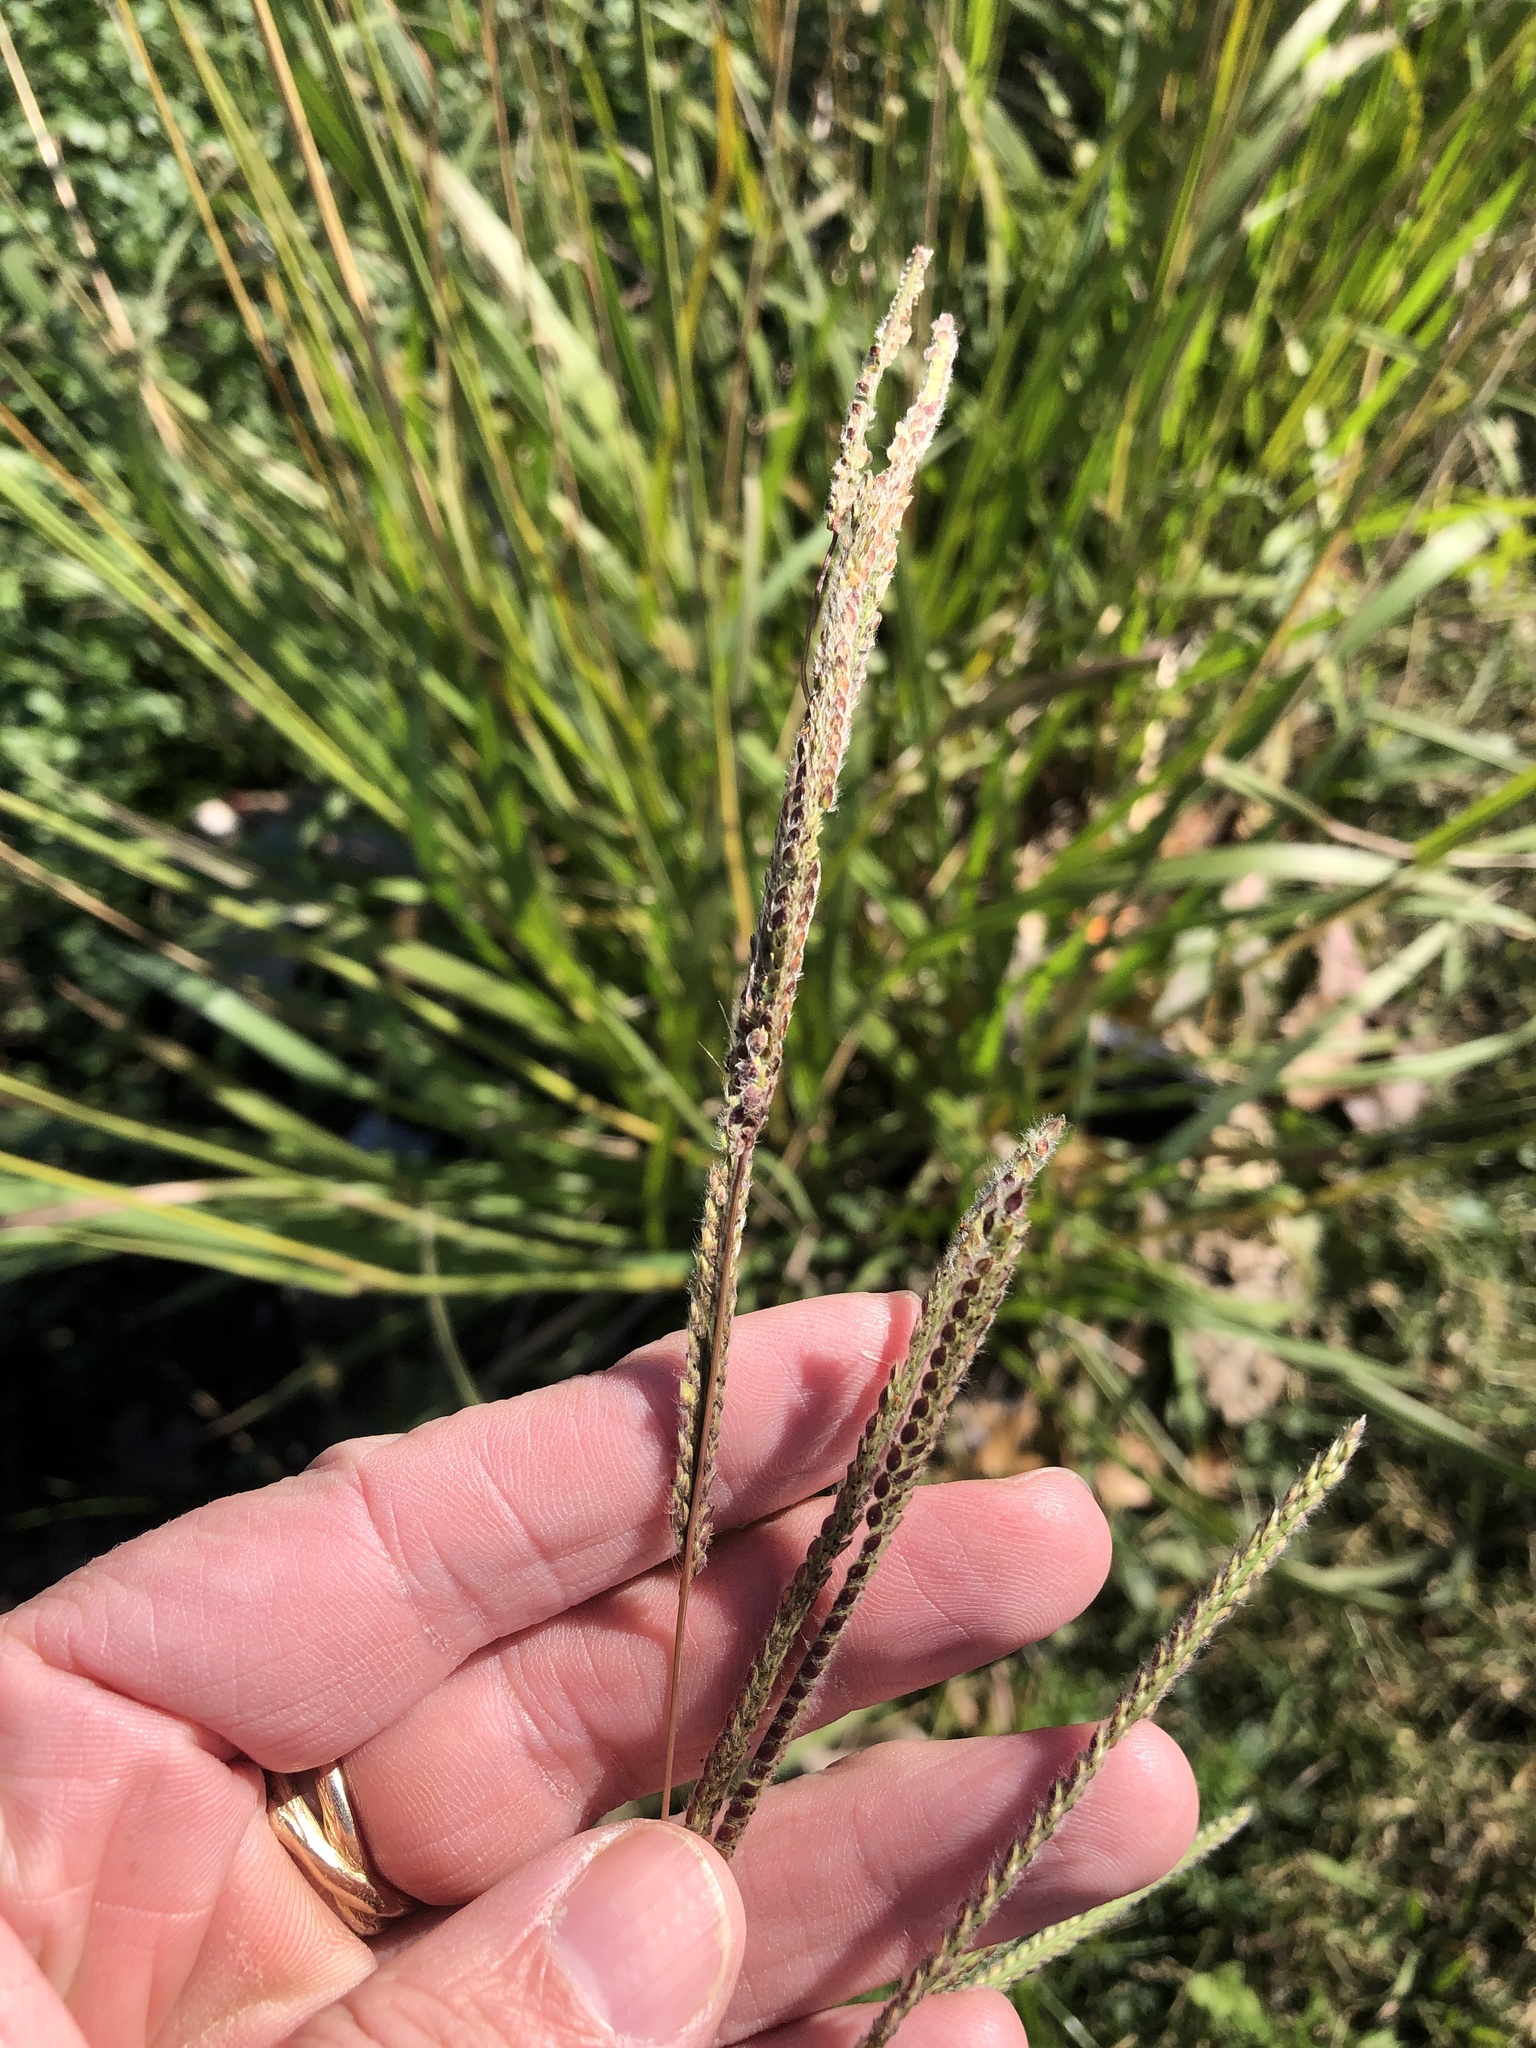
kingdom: Plantae
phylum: Tracheophyta
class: Liliopsida
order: Poales
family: Poaceae
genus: Paspalum
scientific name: Paspalum urvillei
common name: Vasey's grass
